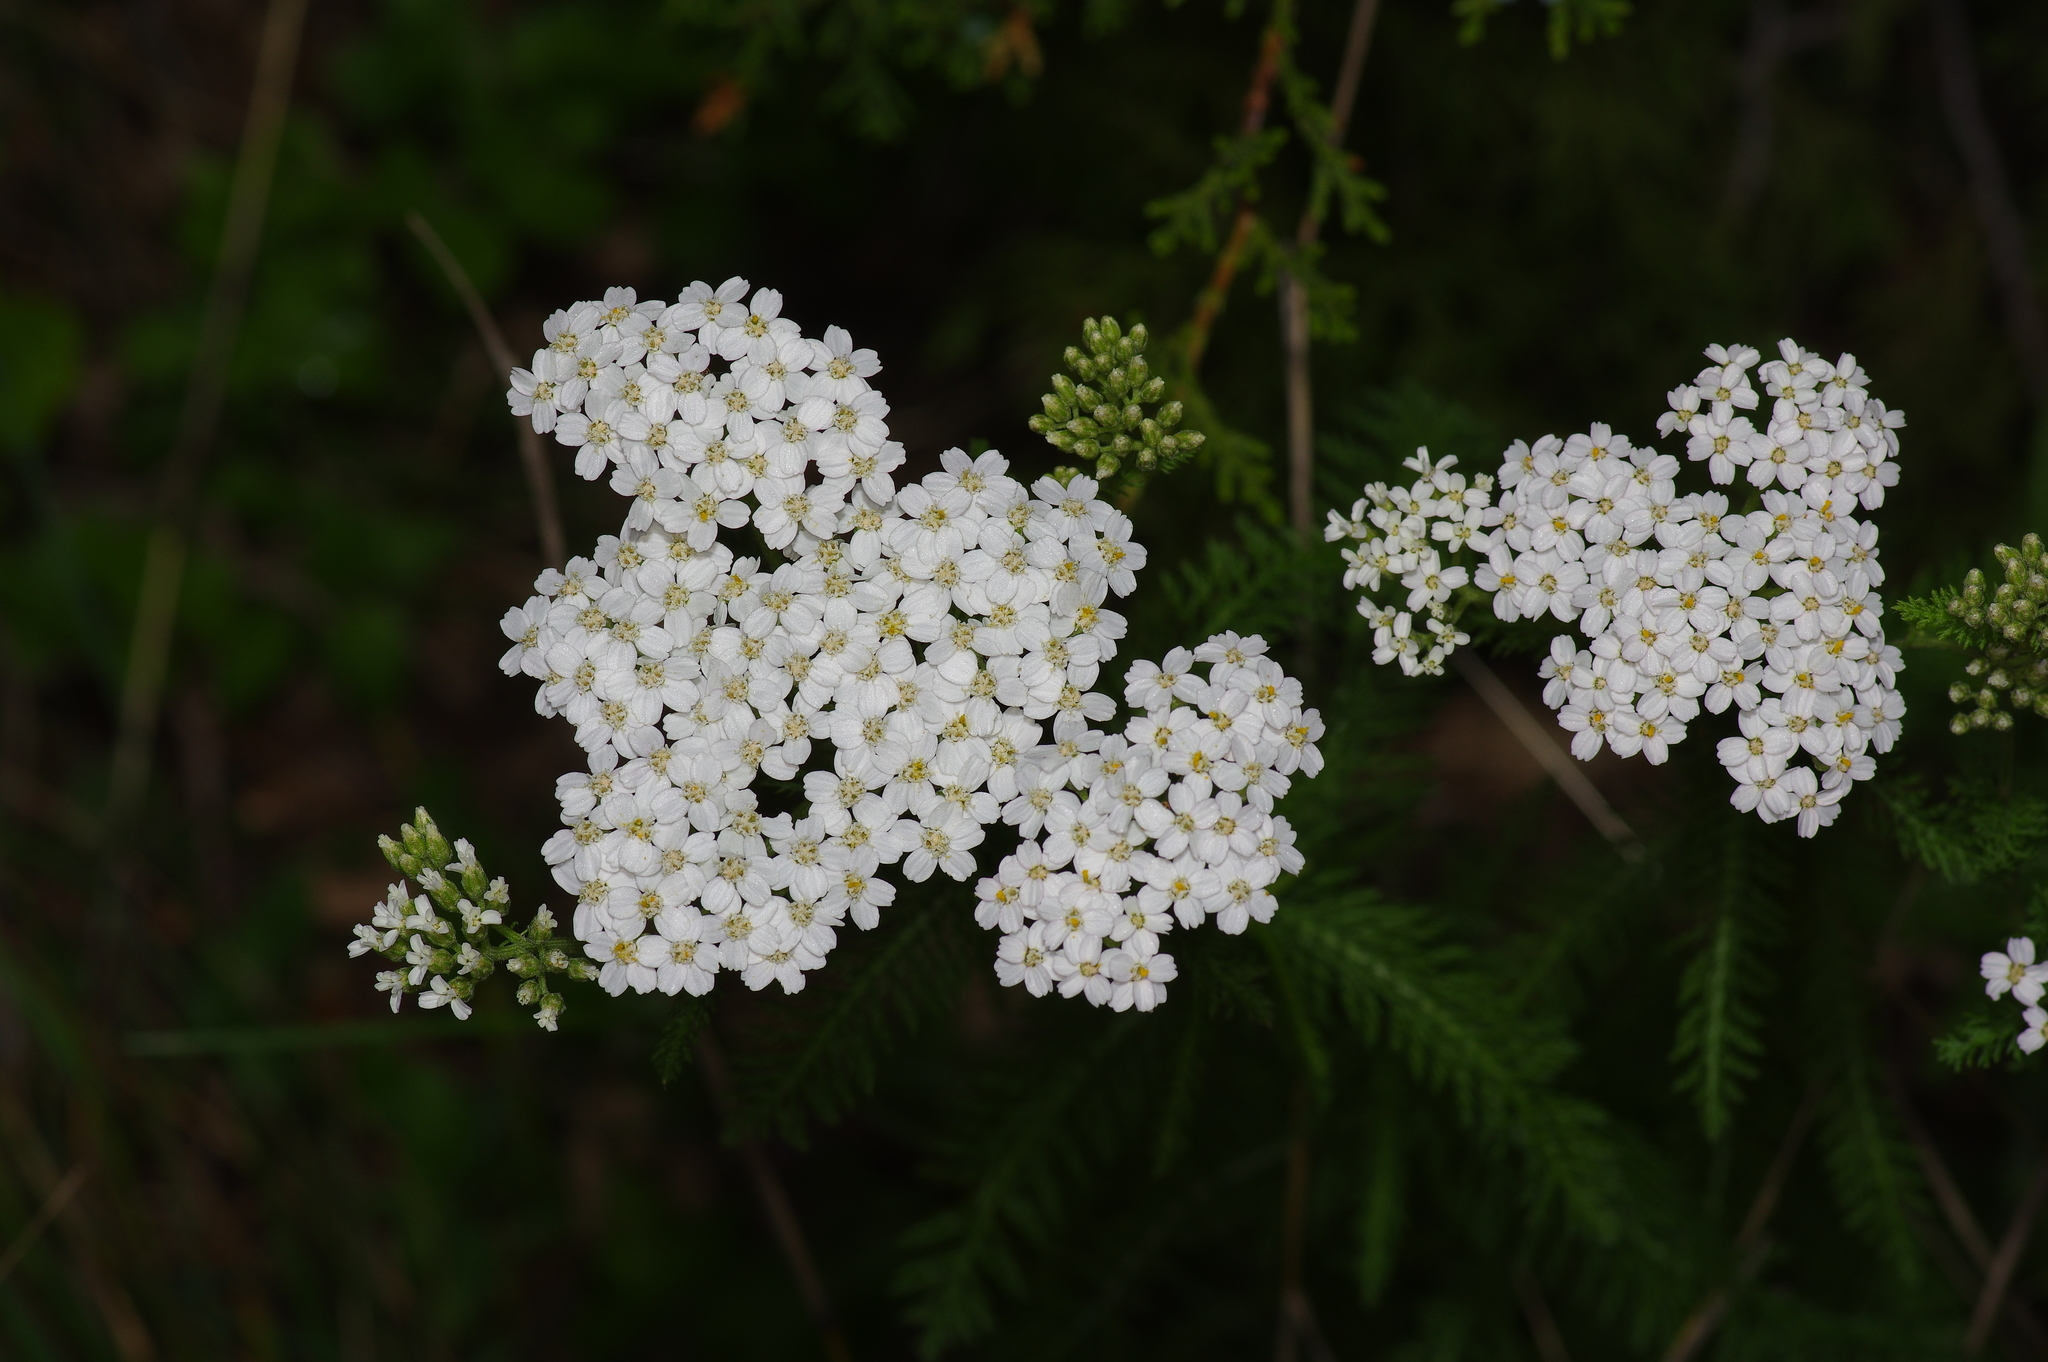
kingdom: Plantae
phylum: Tracheophyta
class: Magnoliopsida
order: Asterales
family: Asteraceae
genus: Achillea
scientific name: Achillea millefolium
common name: Yarrow
